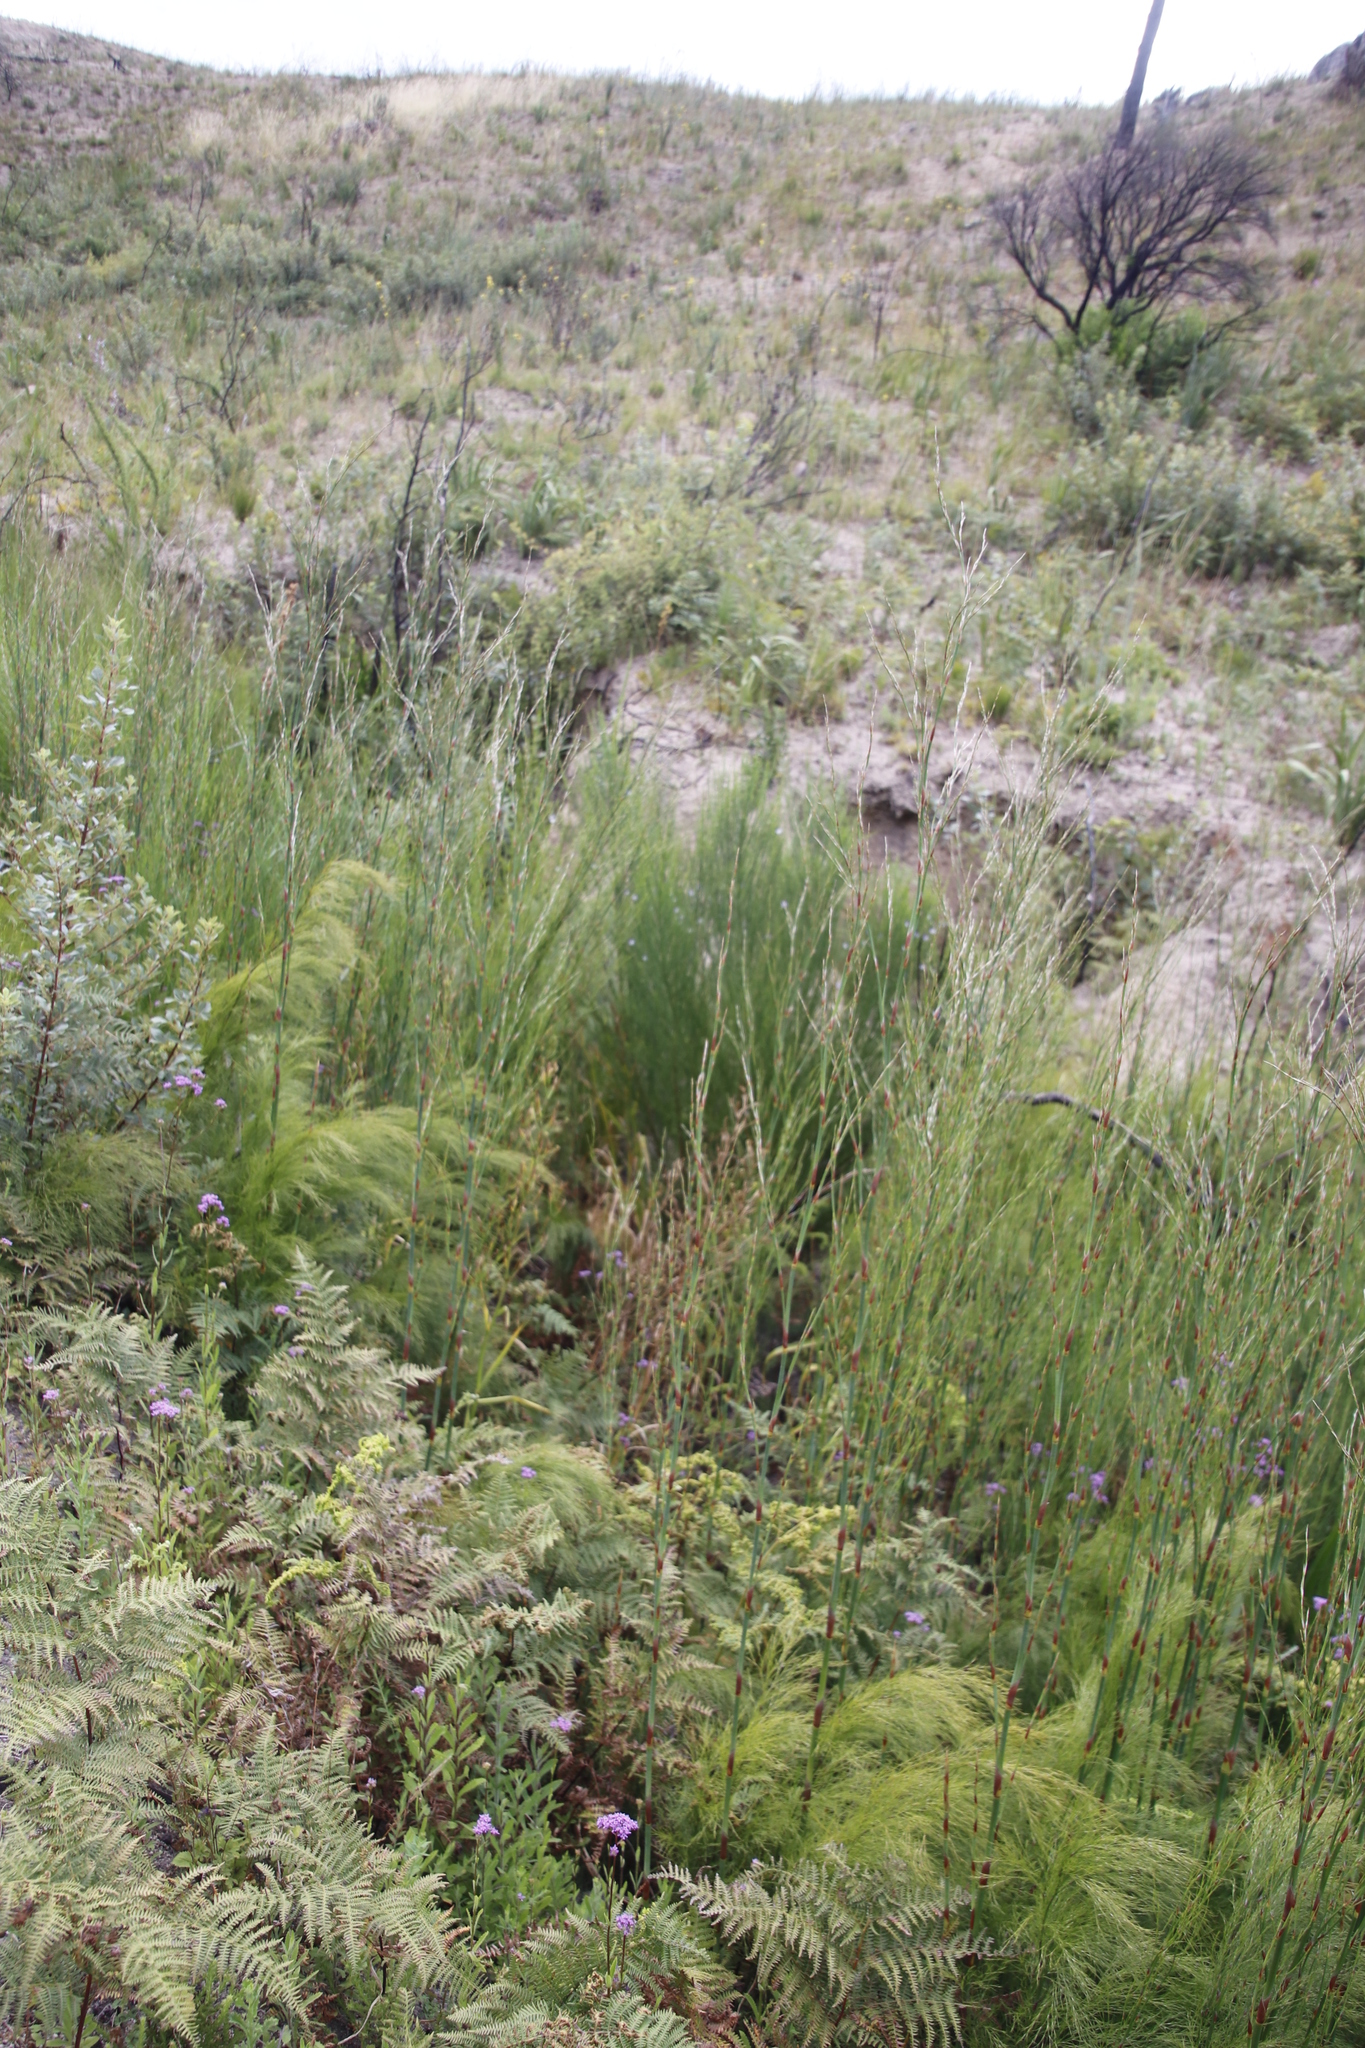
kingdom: Plantae
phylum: Tracheophyta
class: Magnoliopsida
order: Fabales
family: Fabaceae
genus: Psoralea
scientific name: Psoralea usitata
